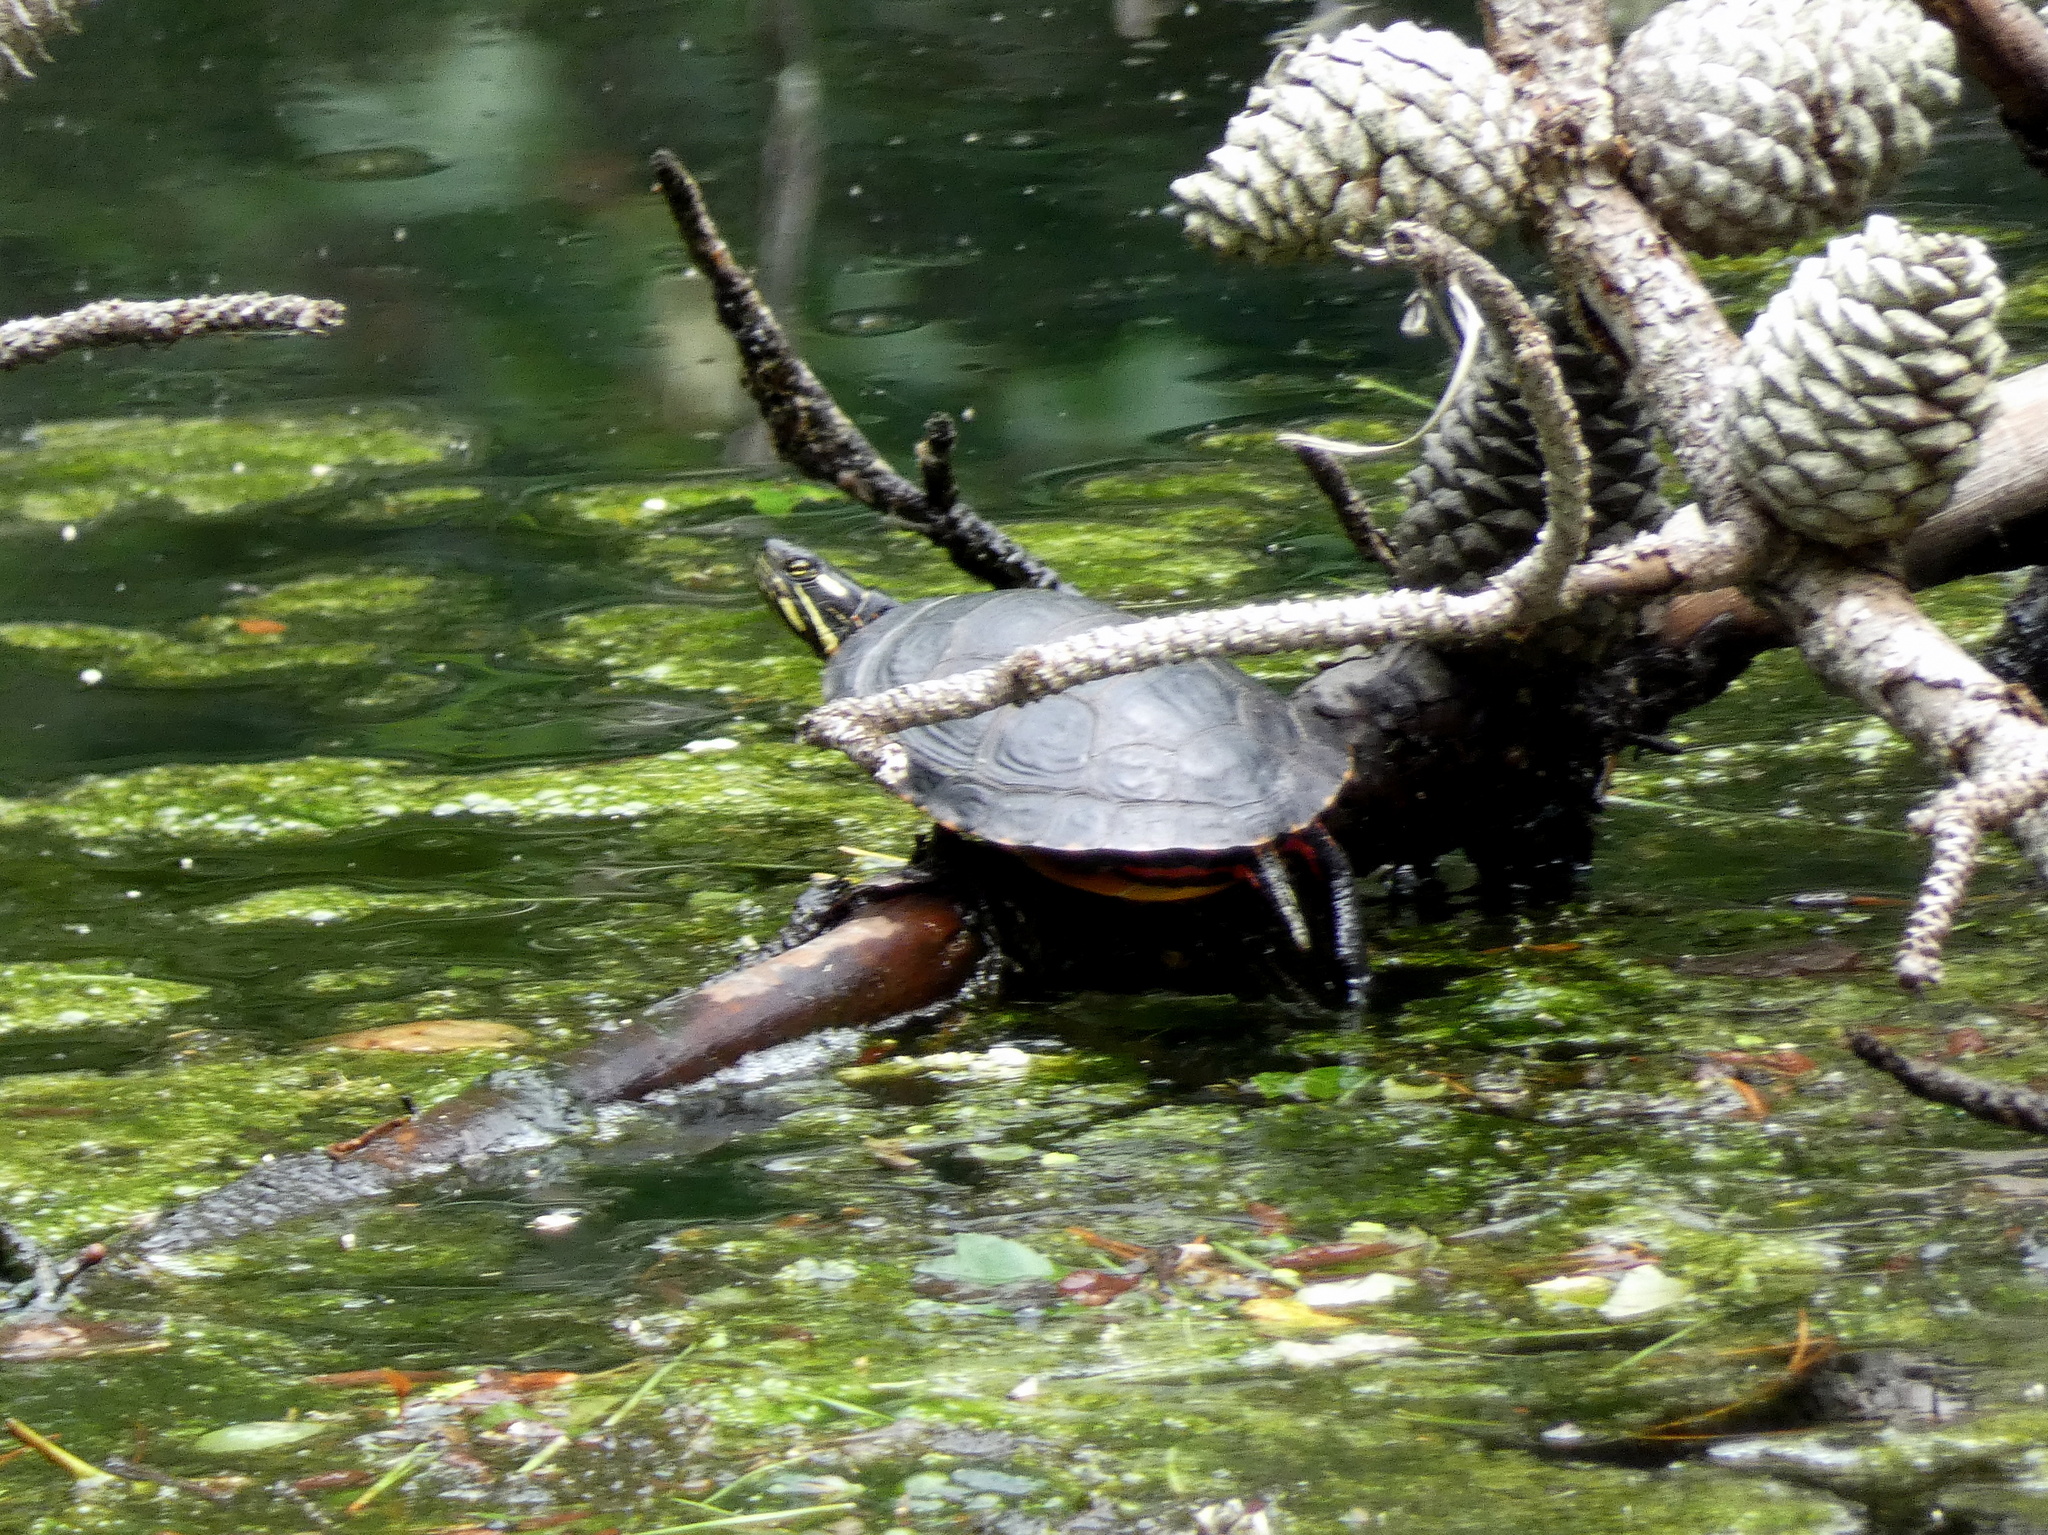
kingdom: Animalia
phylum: Chordata
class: Testudines
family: Emydidae
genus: Chrysemys
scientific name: Chrysemys picta
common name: Painted turtle
